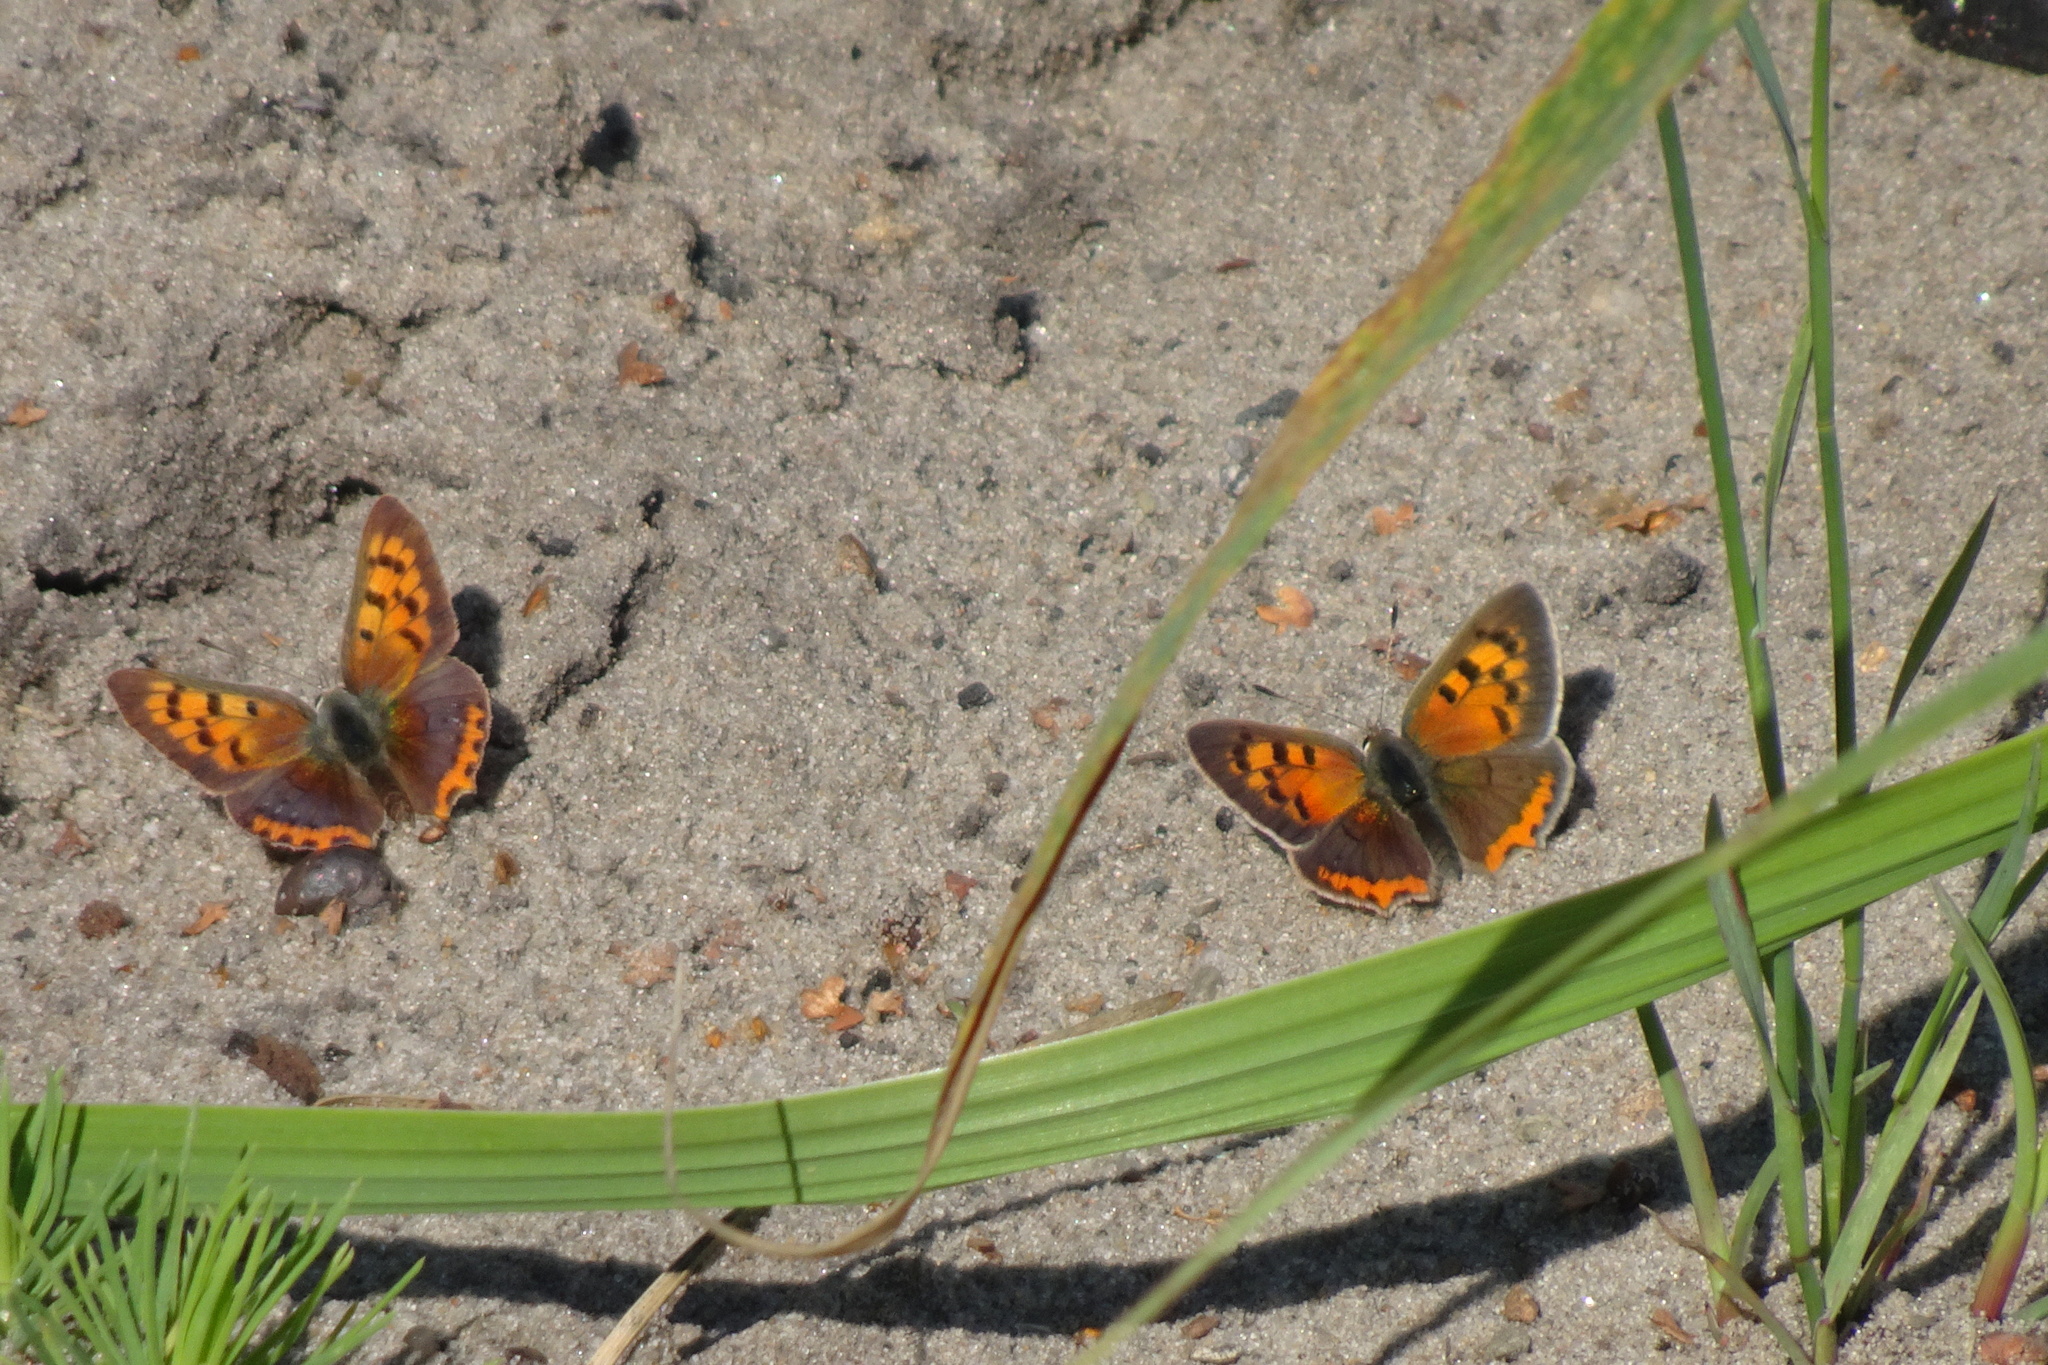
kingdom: Animalia
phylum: Arthropoda
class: Insecta
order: Lepidoptera
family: Lycaenidae
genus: Lycaena
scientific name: Lycaena phlaeas
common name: Small copper
